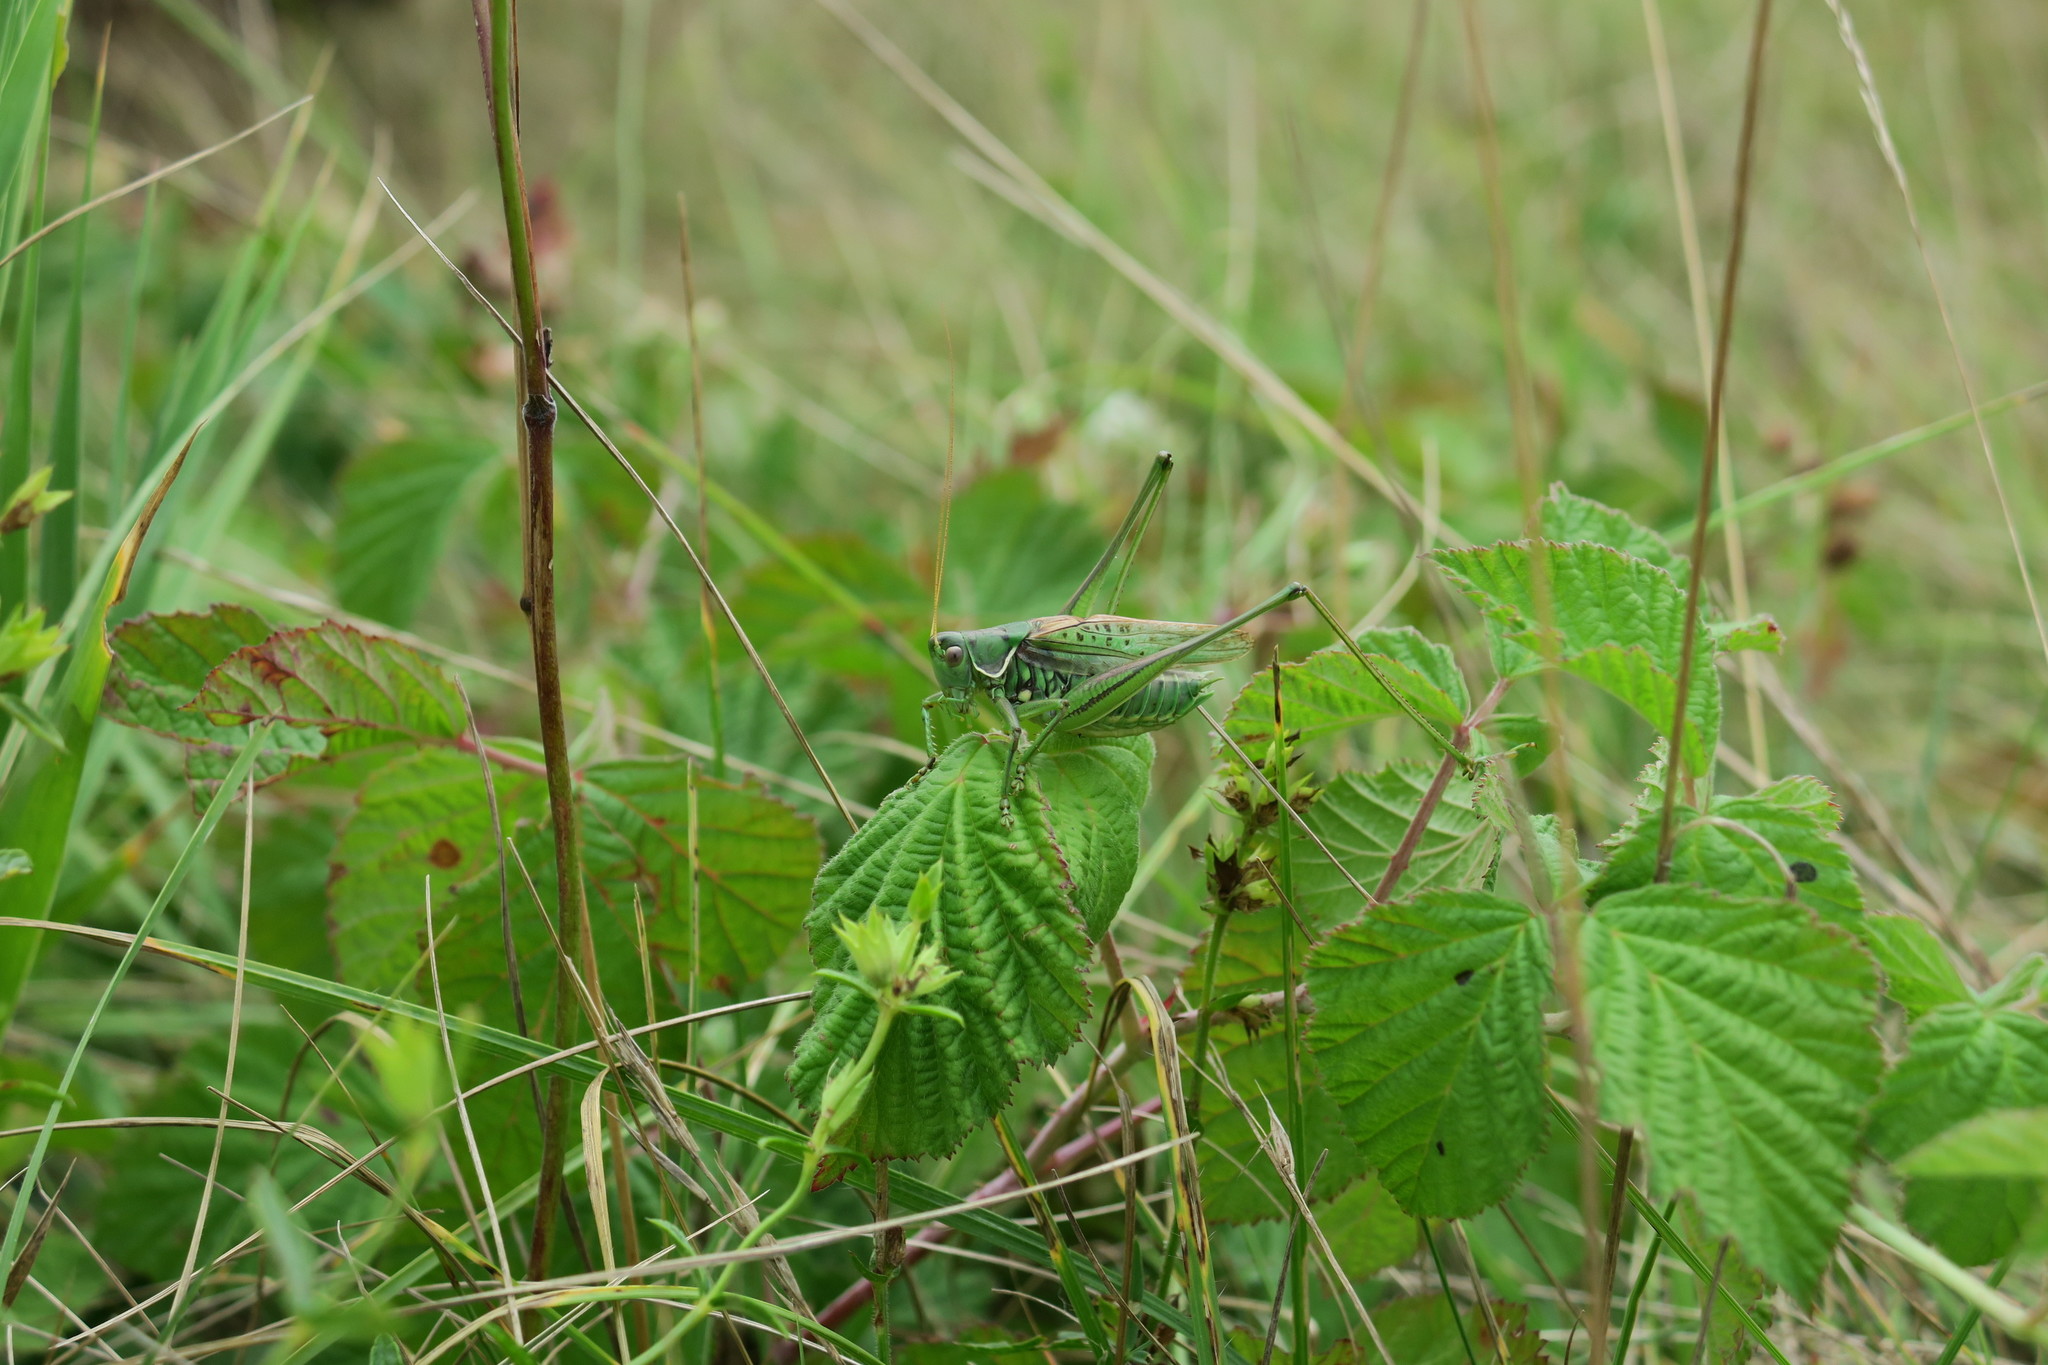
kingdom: Animalia
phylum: Arthropoda
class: Insecta
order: Orthoptera
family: Tettigoniidae
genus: Gampsocleis
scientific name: Gampsocleis glabra
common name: Heath bushcricket
